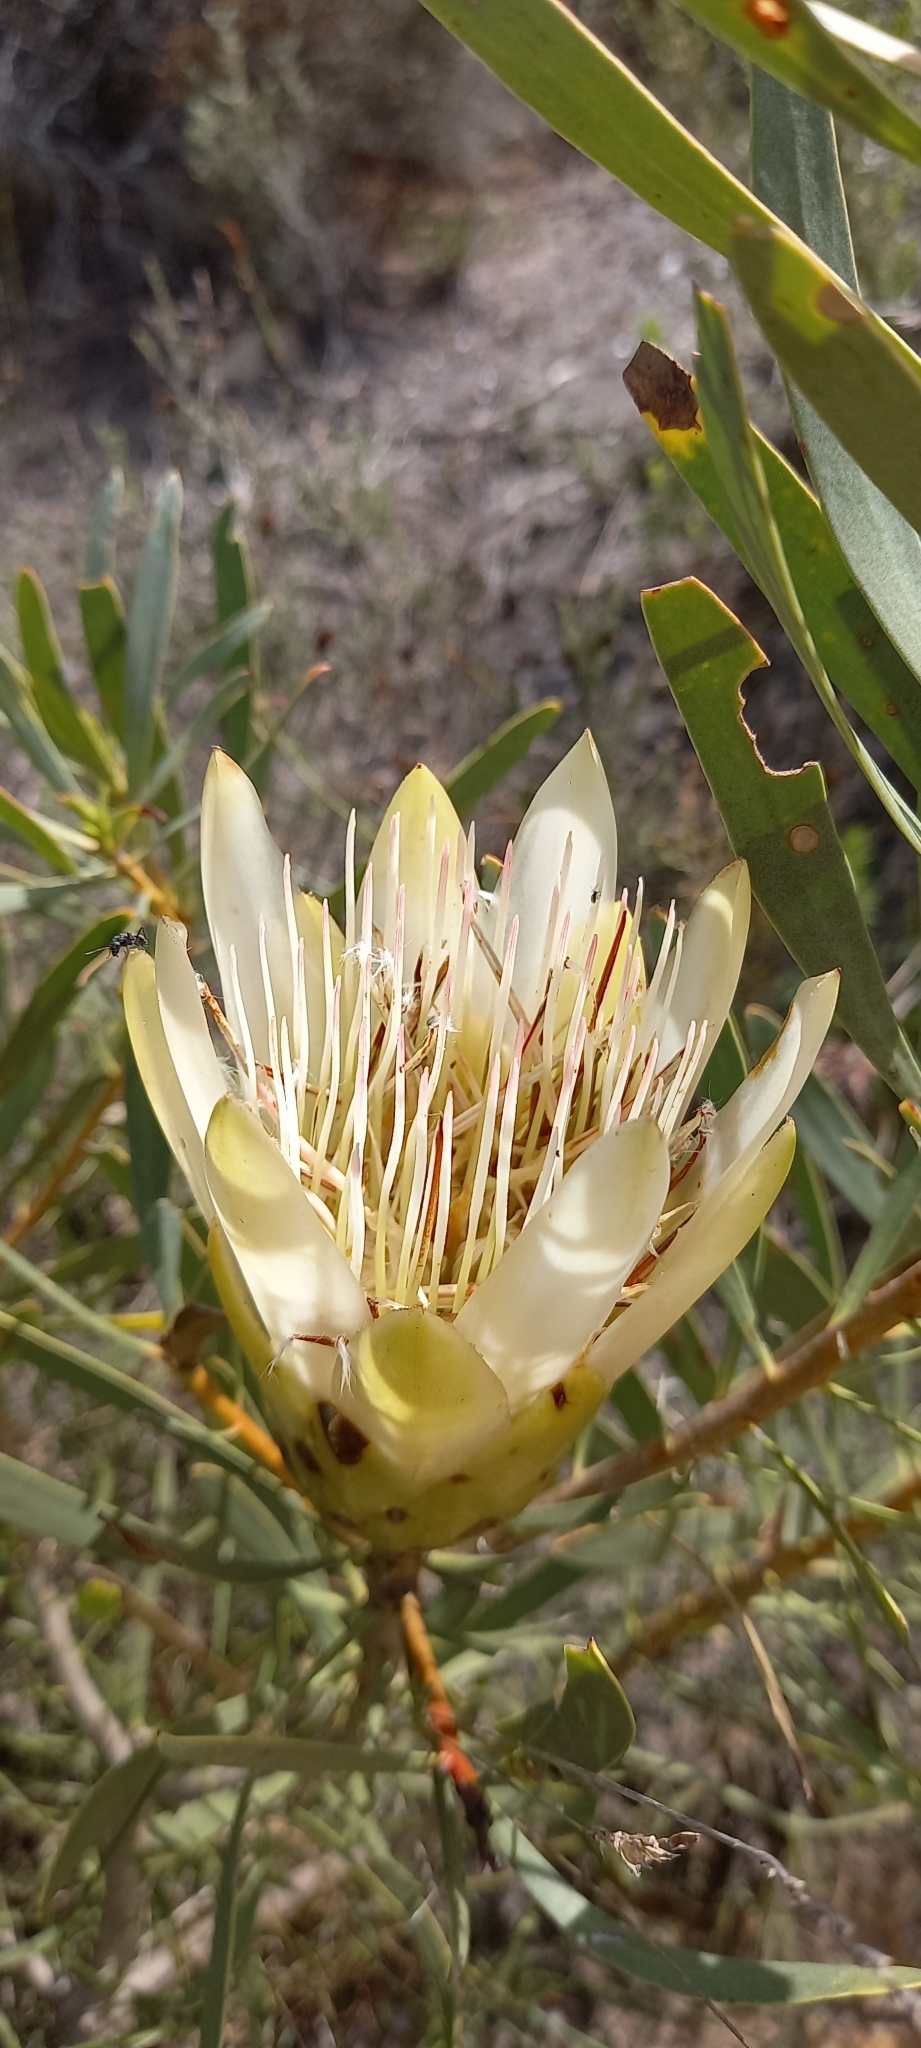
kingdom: Plantae
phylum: Tracheophyta
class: Magnoliopsida
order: Proteales
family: Proteaceae
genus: Protea
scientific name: Protea repens
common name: Sugarbush
